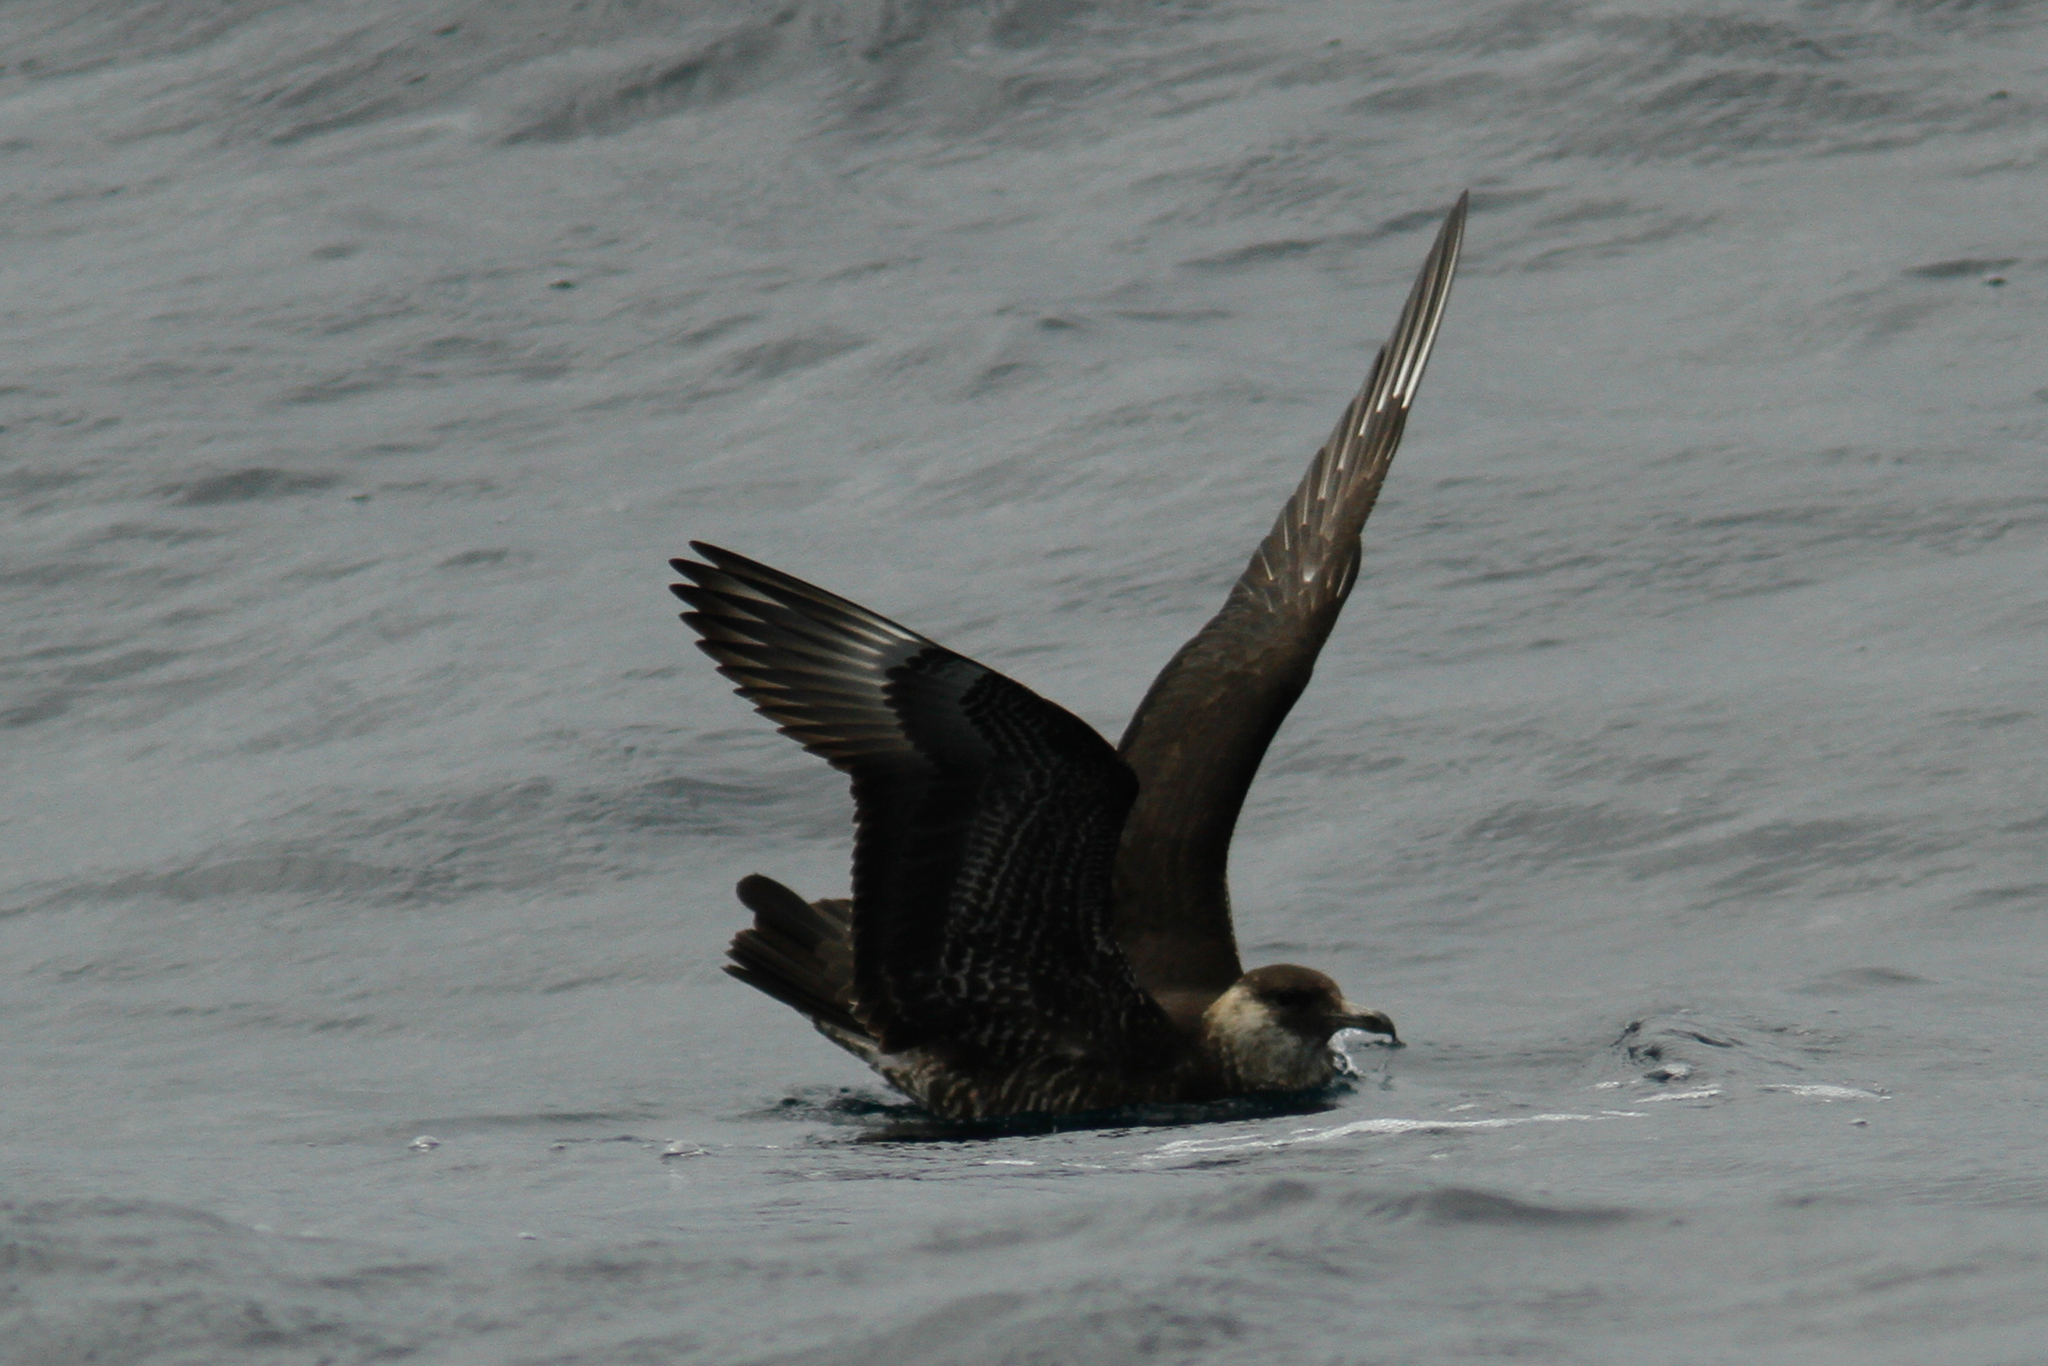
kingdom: Animalia
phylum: Chordata
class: Aves
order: Charadriiformes
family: Stercorariidae
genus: Stercorarius
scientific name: Stercorarius pomarinus
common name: Pomarine jaeger
